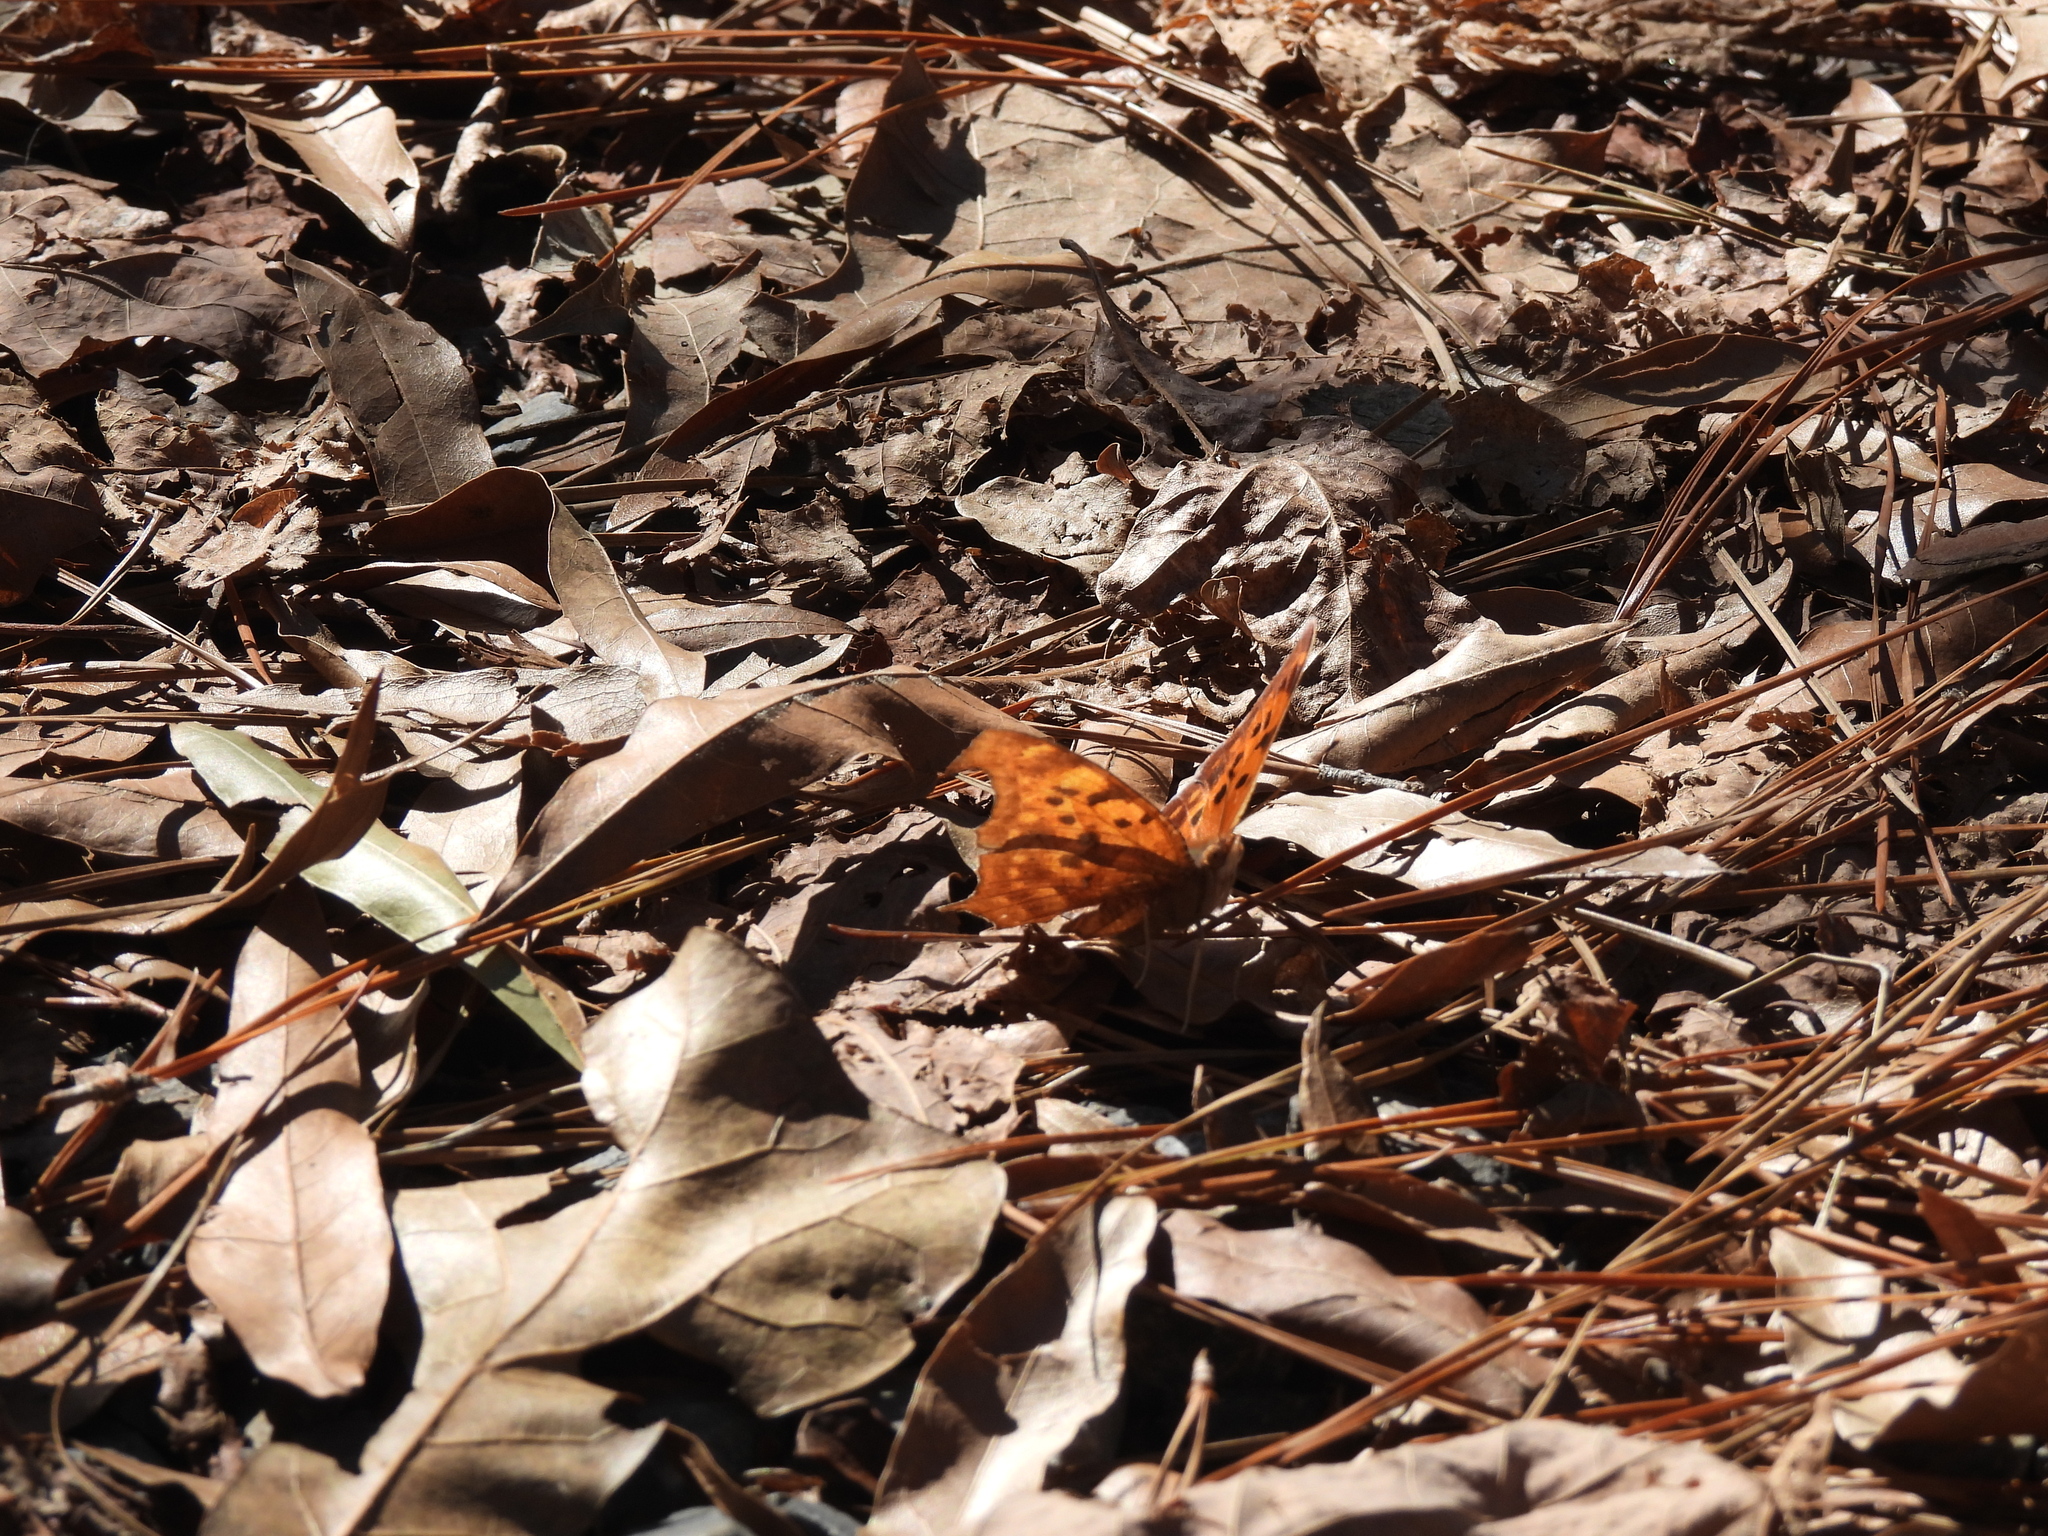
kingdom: Animalia
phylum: Arthropoda
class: Insecta
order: Lepidoptera
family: Nymphalidae
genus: Polygonia
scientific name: Polygonia interrogationis
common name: Question mark
